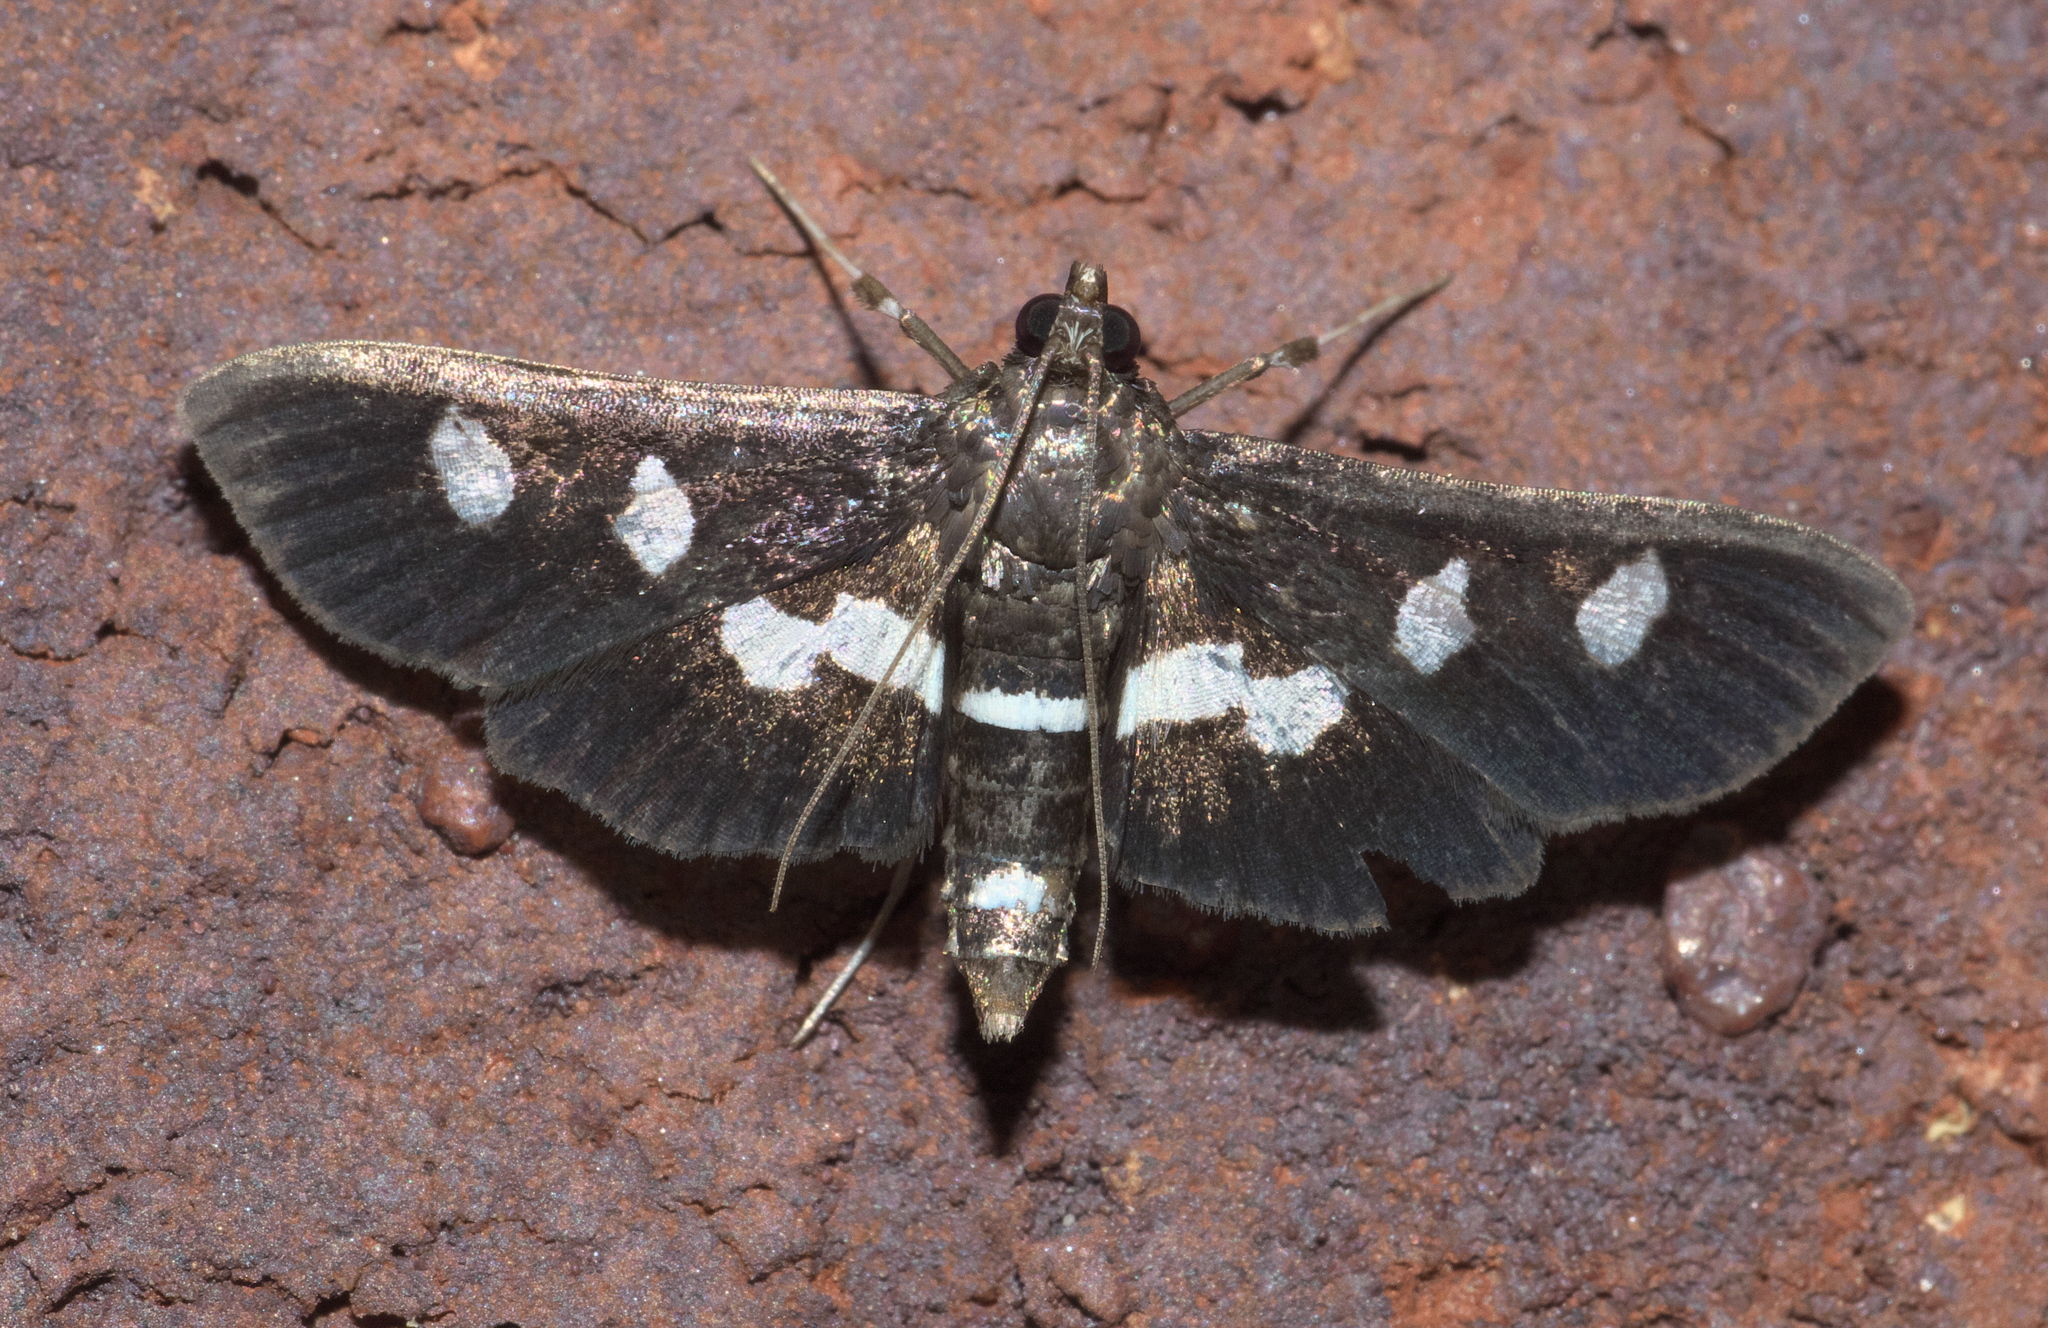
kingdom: Animalia
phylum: Arthropoda
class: Insecta
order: Lepidoptera
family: Crambidae
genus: Desmia
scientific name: Desmia
